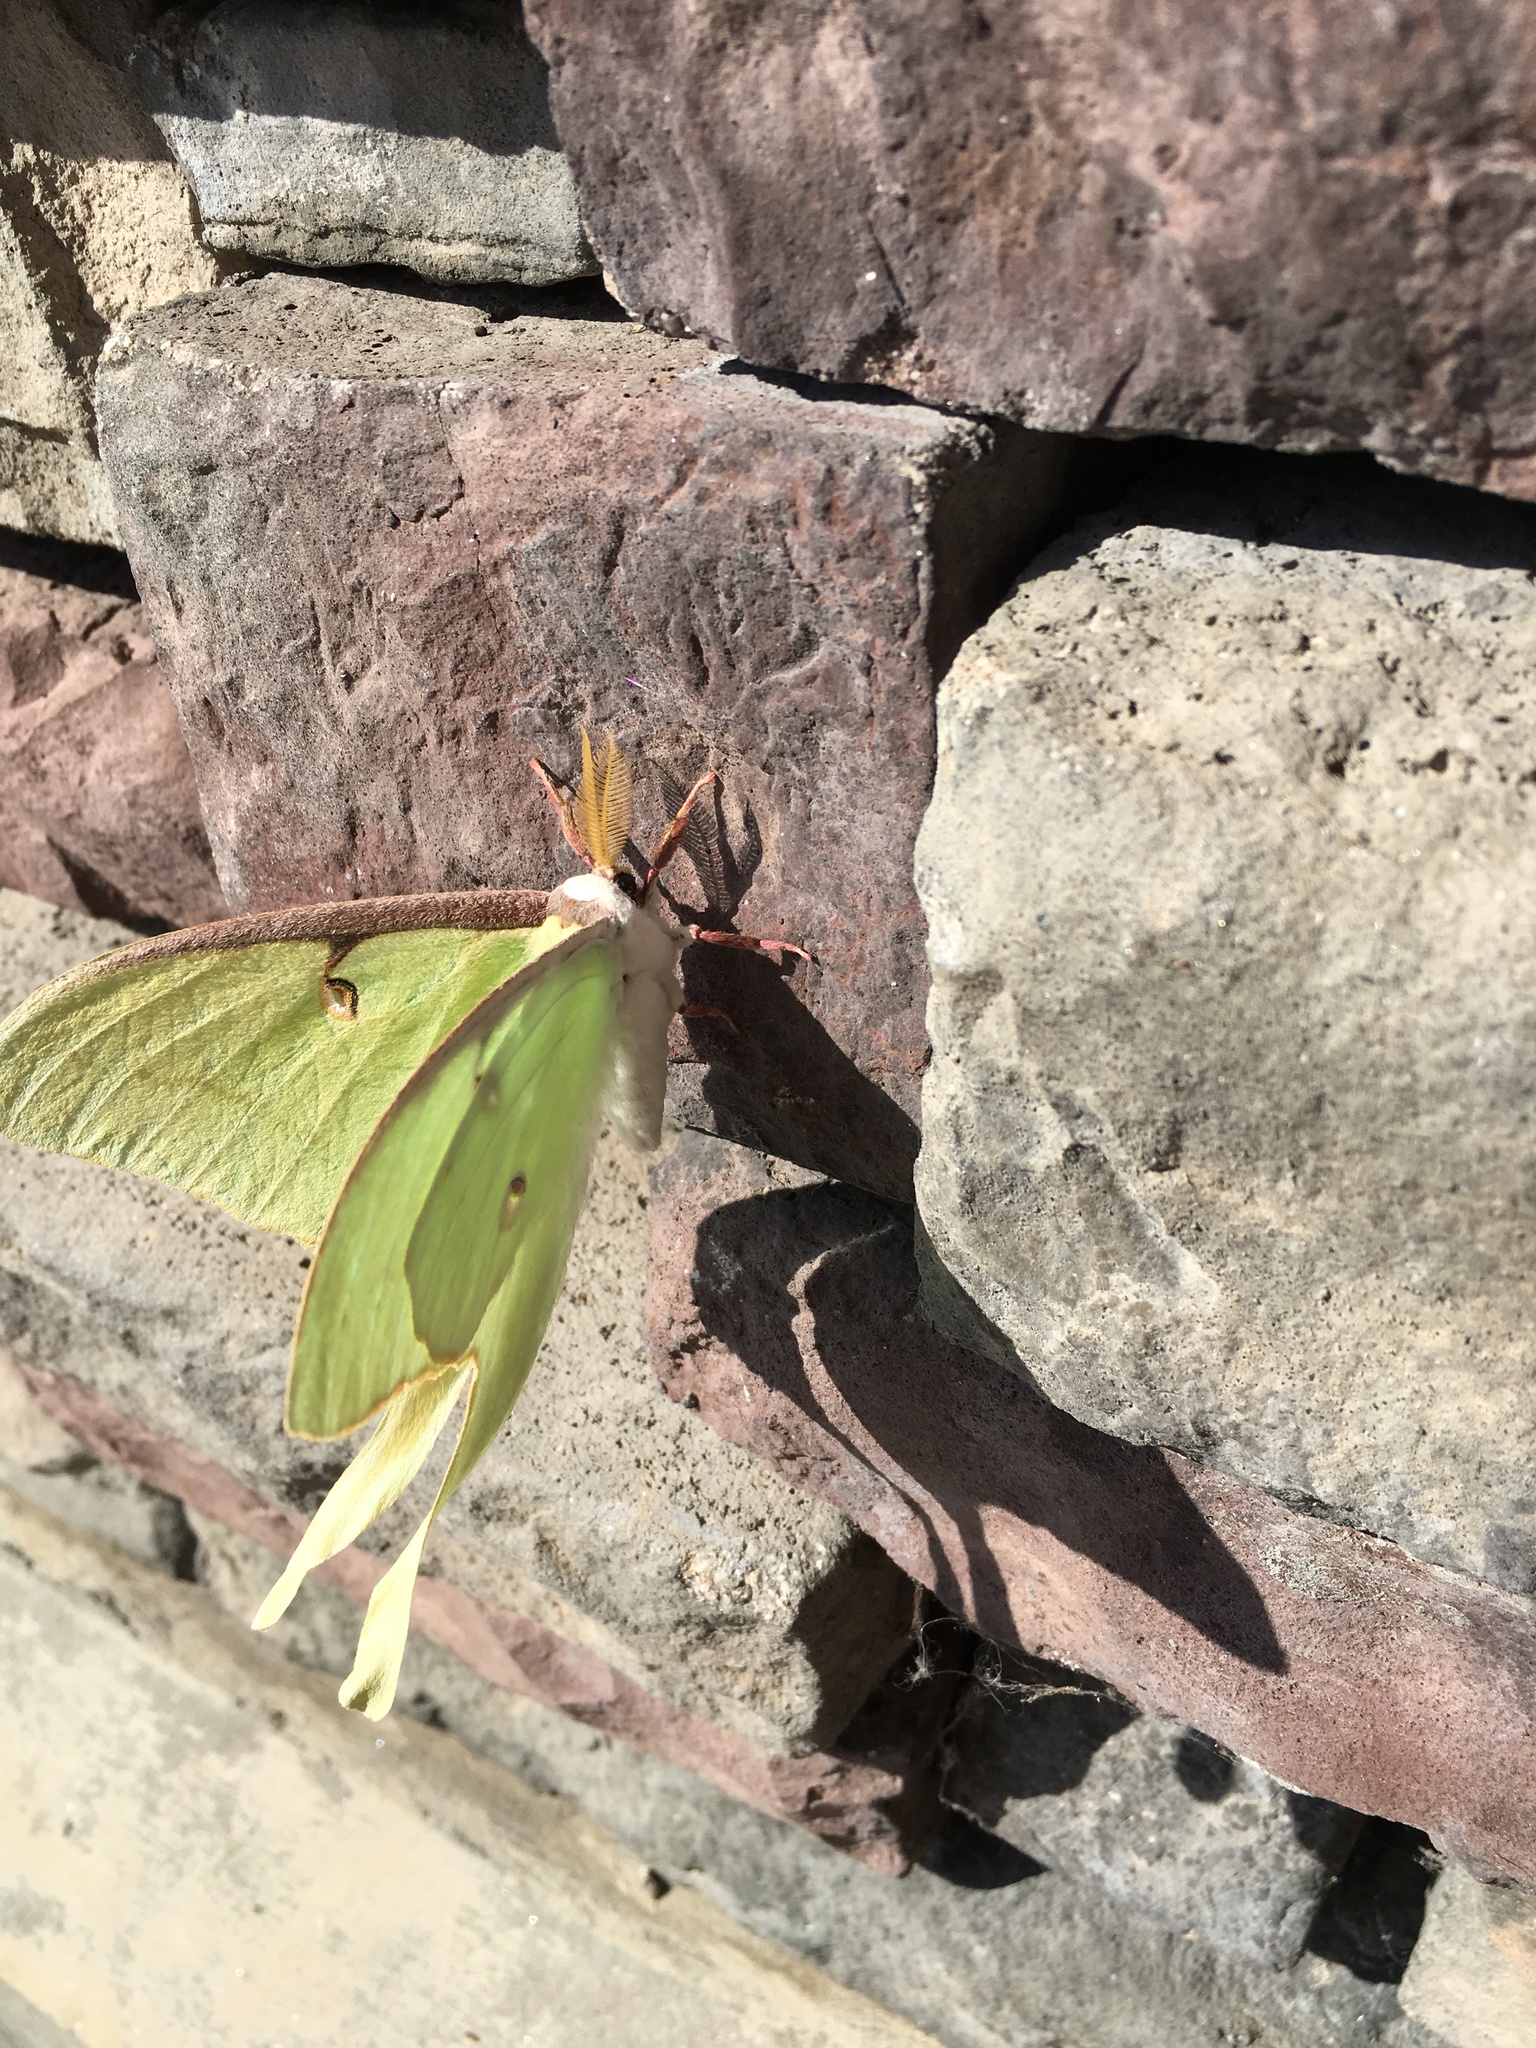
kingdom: Animalia
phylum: Arthropoda
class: Insecta
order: Lepidoptera
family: Saturniidae
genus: Actias
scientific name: Actias luna
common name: Luna moth
